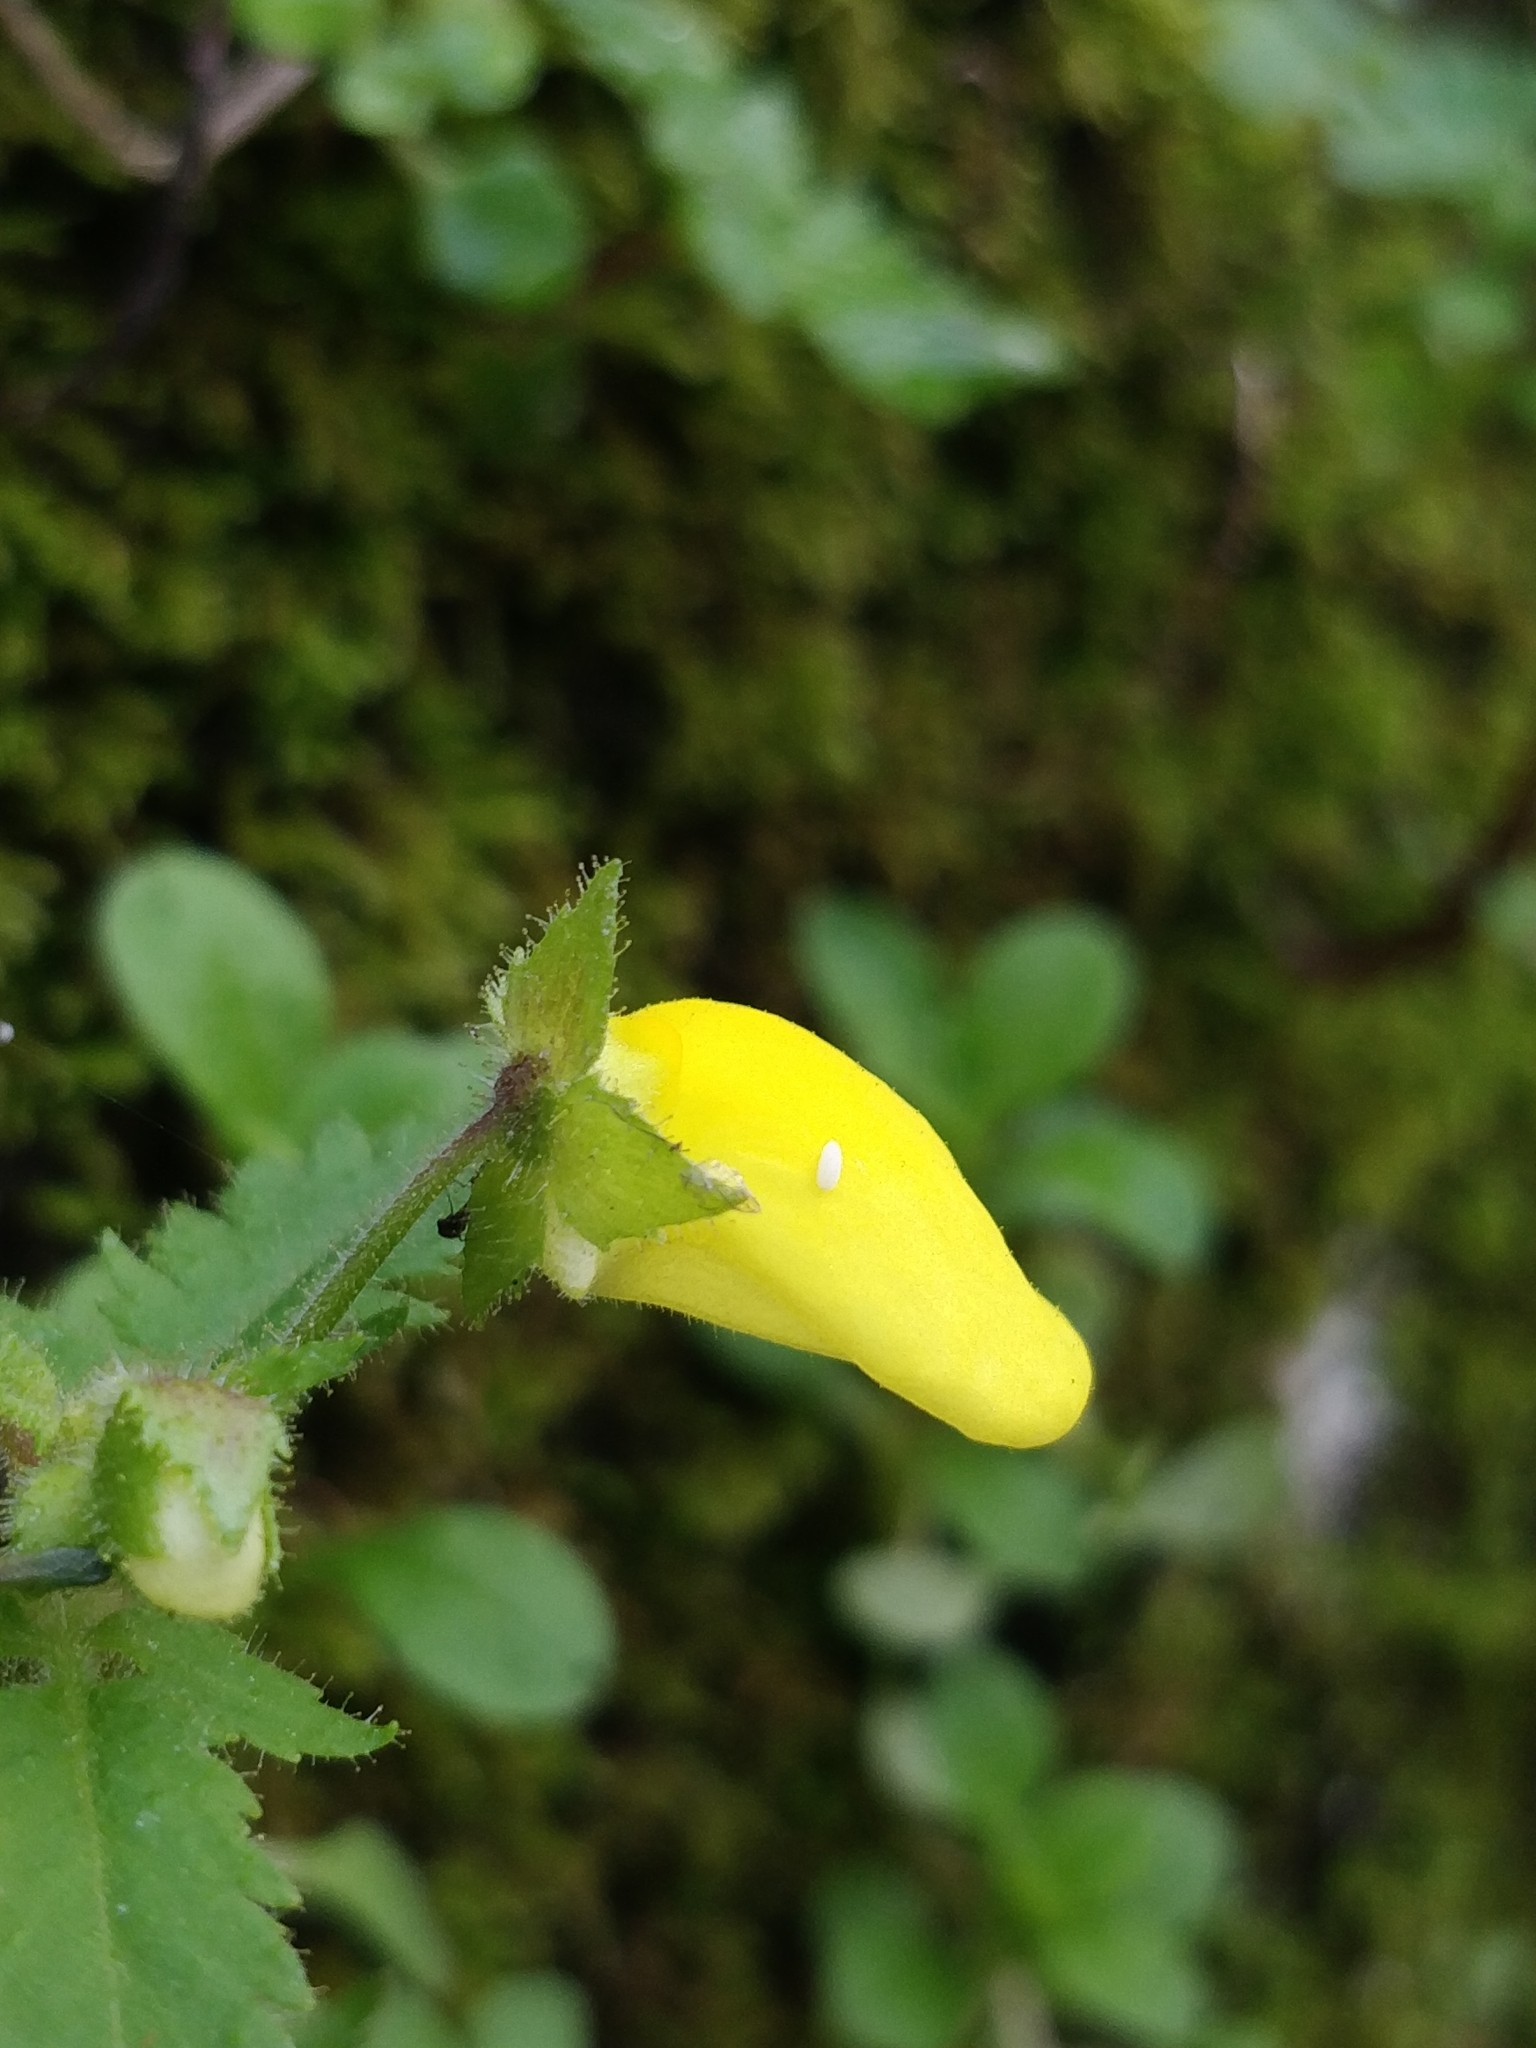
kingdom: Plantae
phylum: Tracheophyta
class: Magnoliopsida
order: Lamiales
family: Calceolariaceae
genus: Calceolaria
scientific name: Calceolaria tripartita
